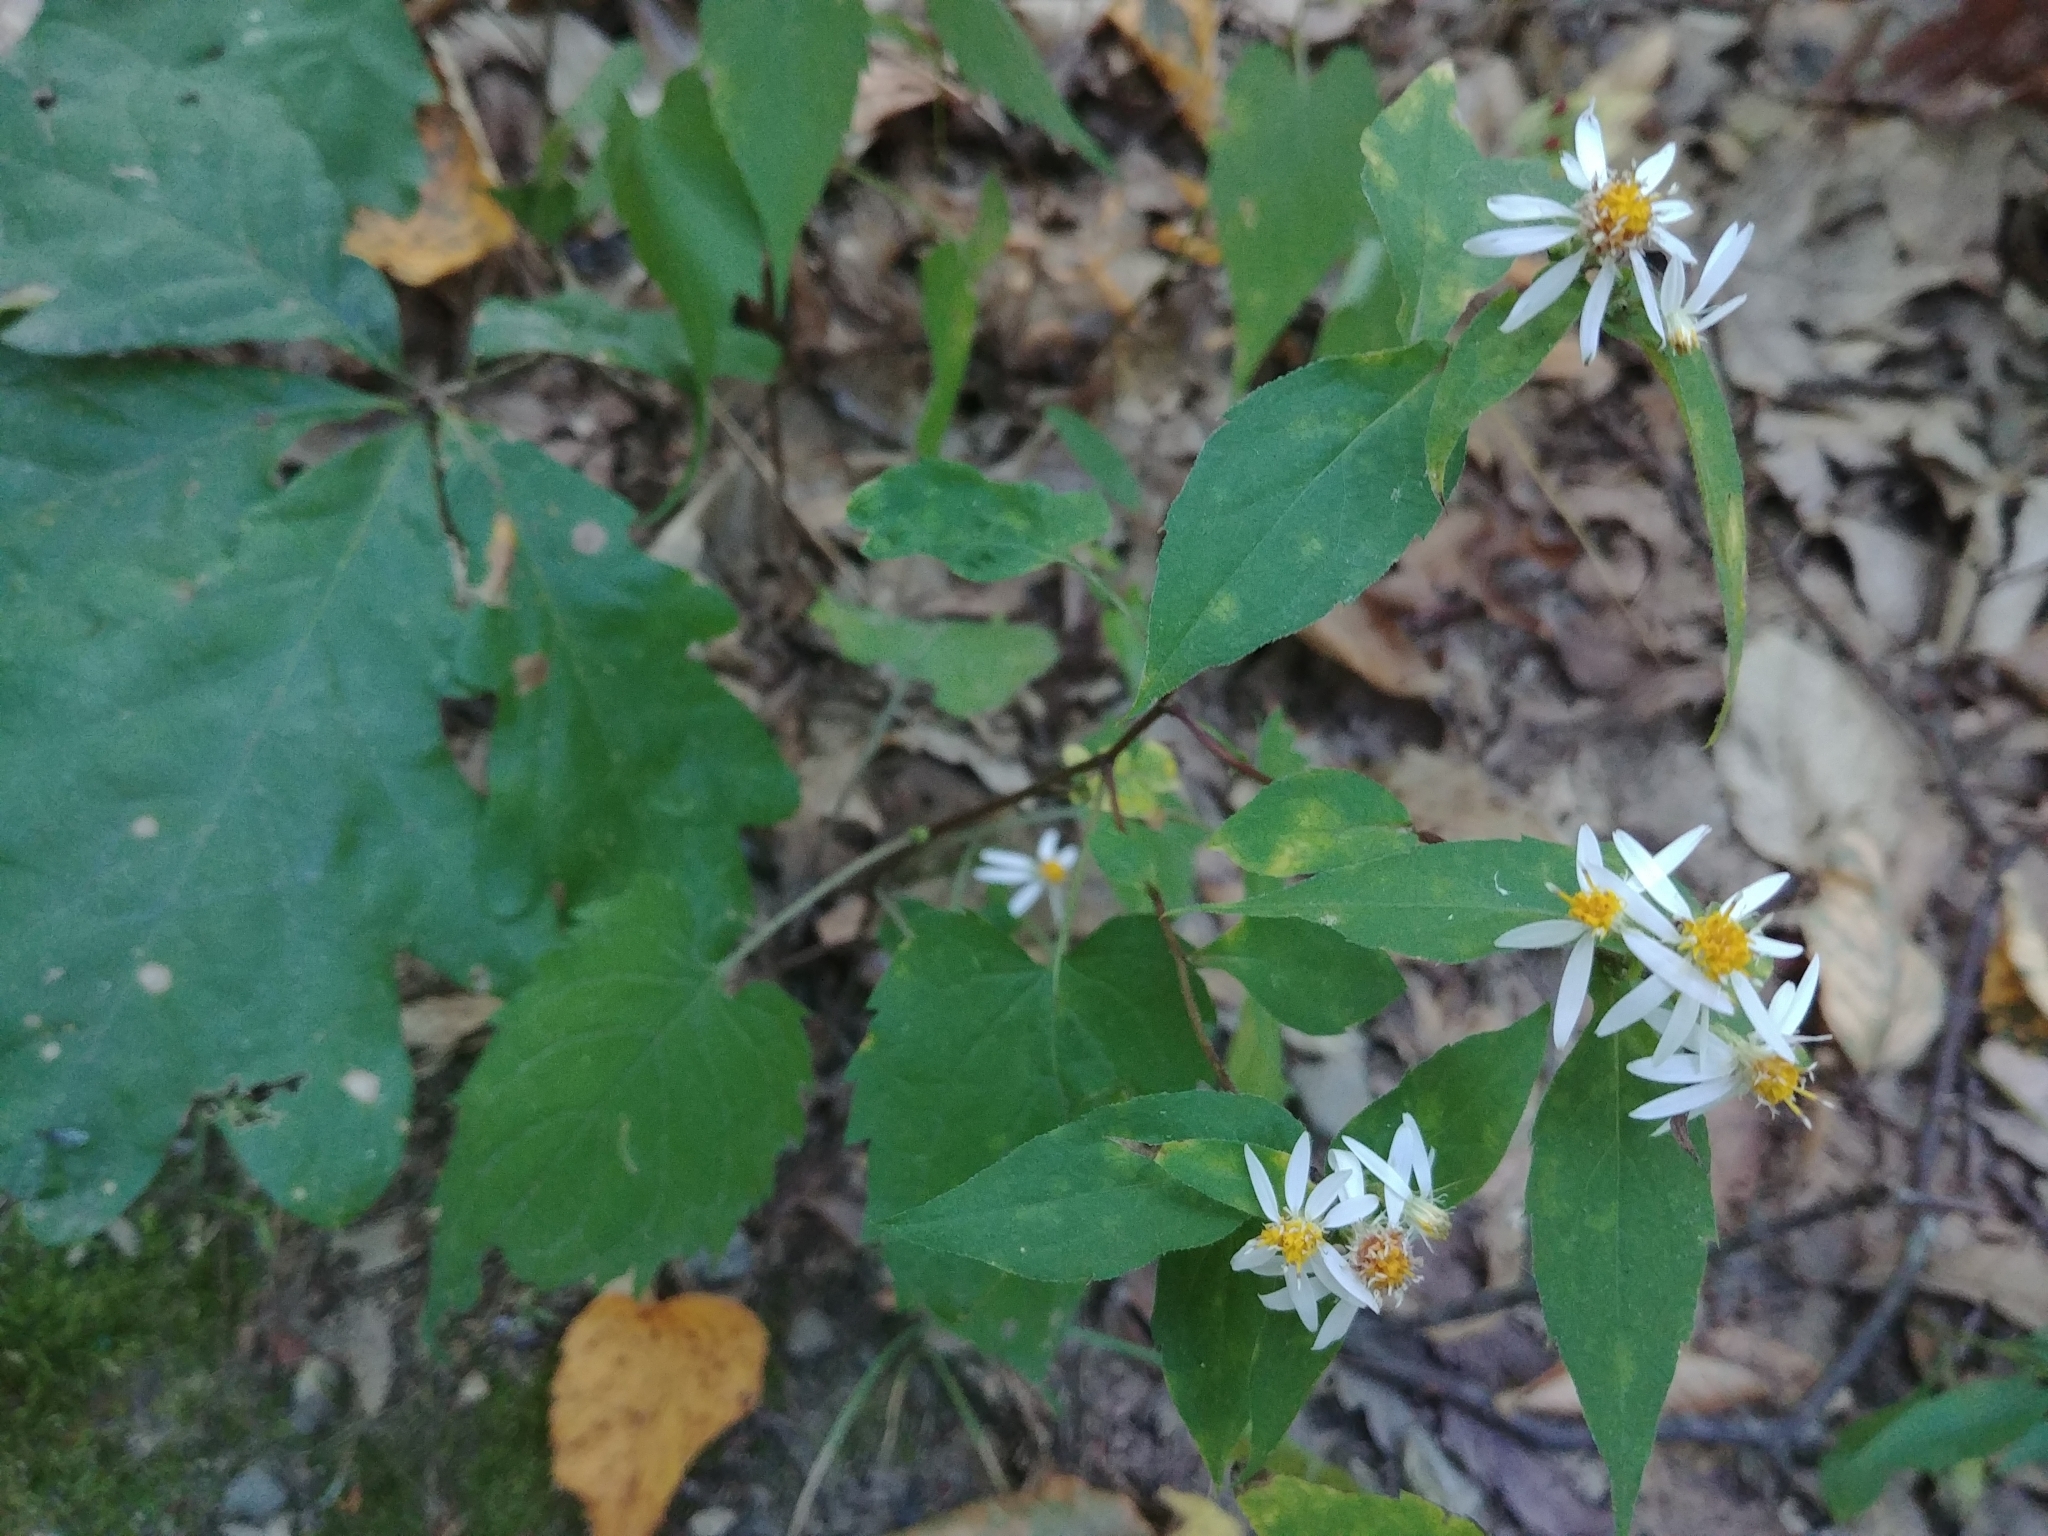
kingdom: Plantae
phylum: Tracheophyta
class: Magnoliopsida
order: Asterales
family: Asteraceae
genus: Eurybia
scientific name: Eurybia divaricata
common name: White wood aster
